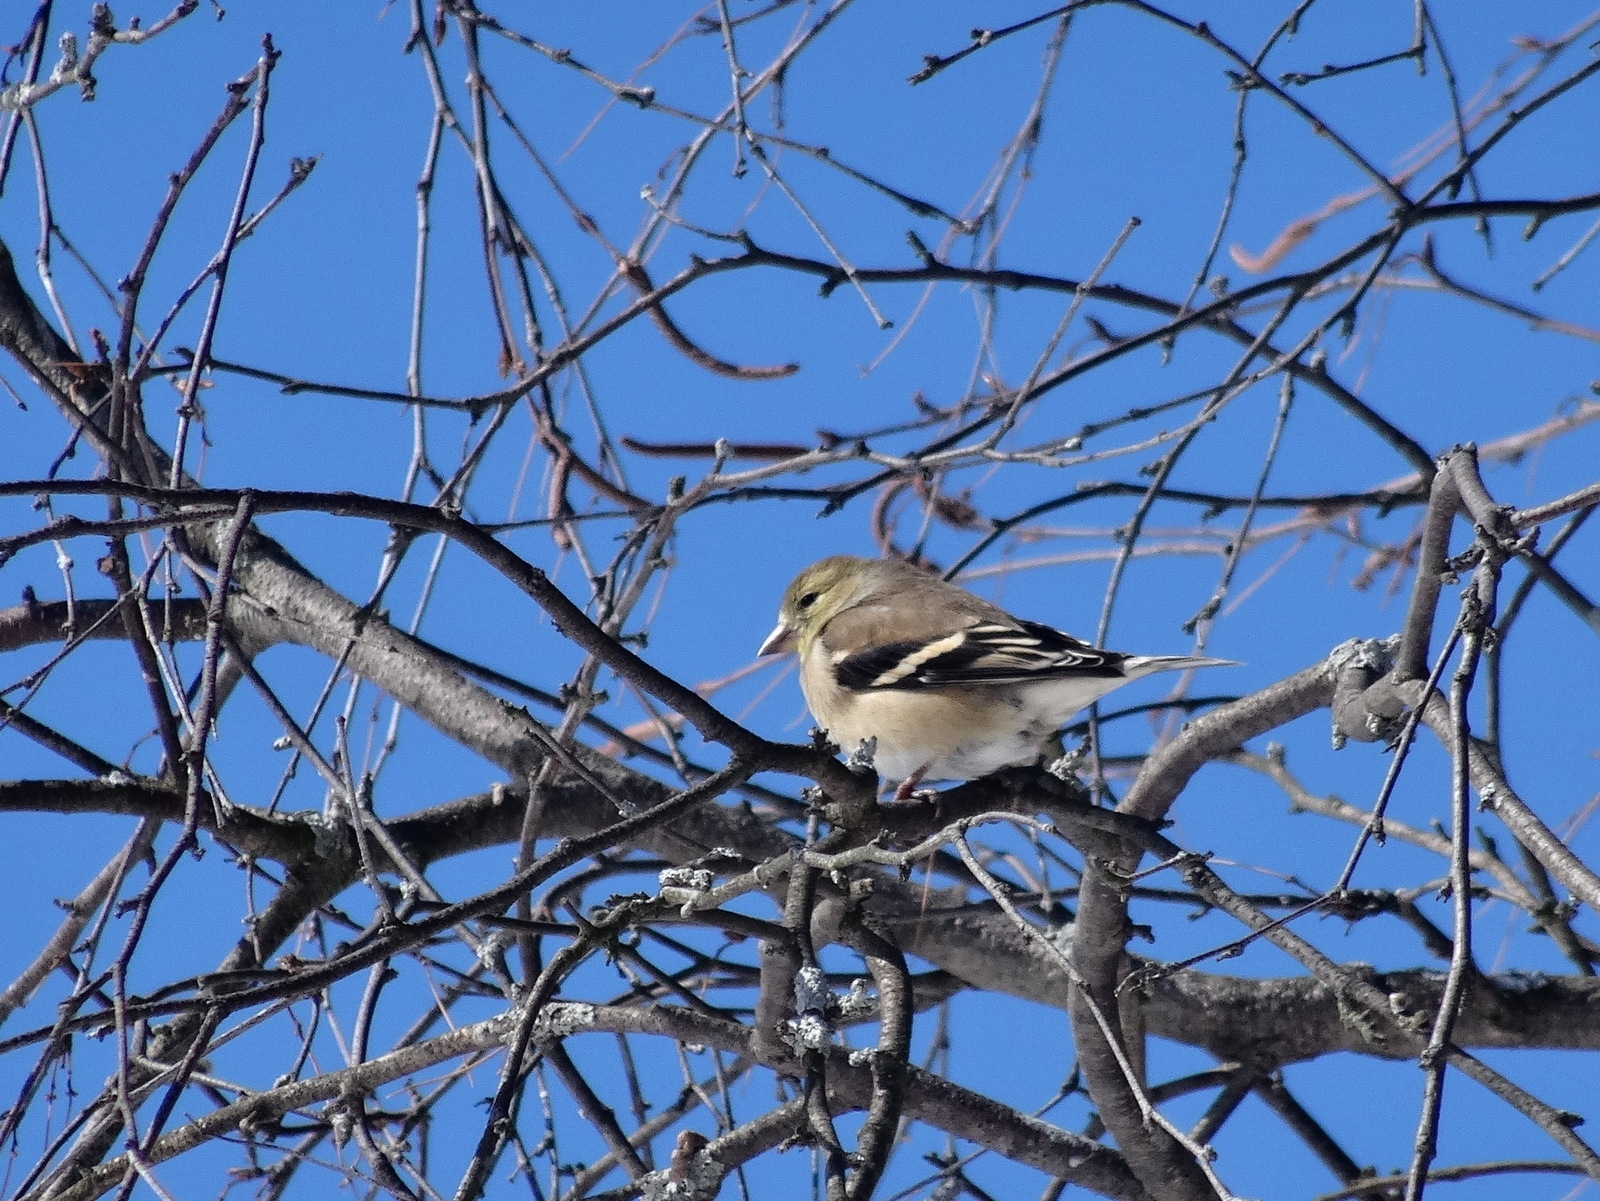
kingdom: Animalia
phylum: Chordata
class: Aves
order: Passeriformes
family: Fringillidae
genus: Spinus
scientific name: Spinus tristis
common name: American goldfinch
